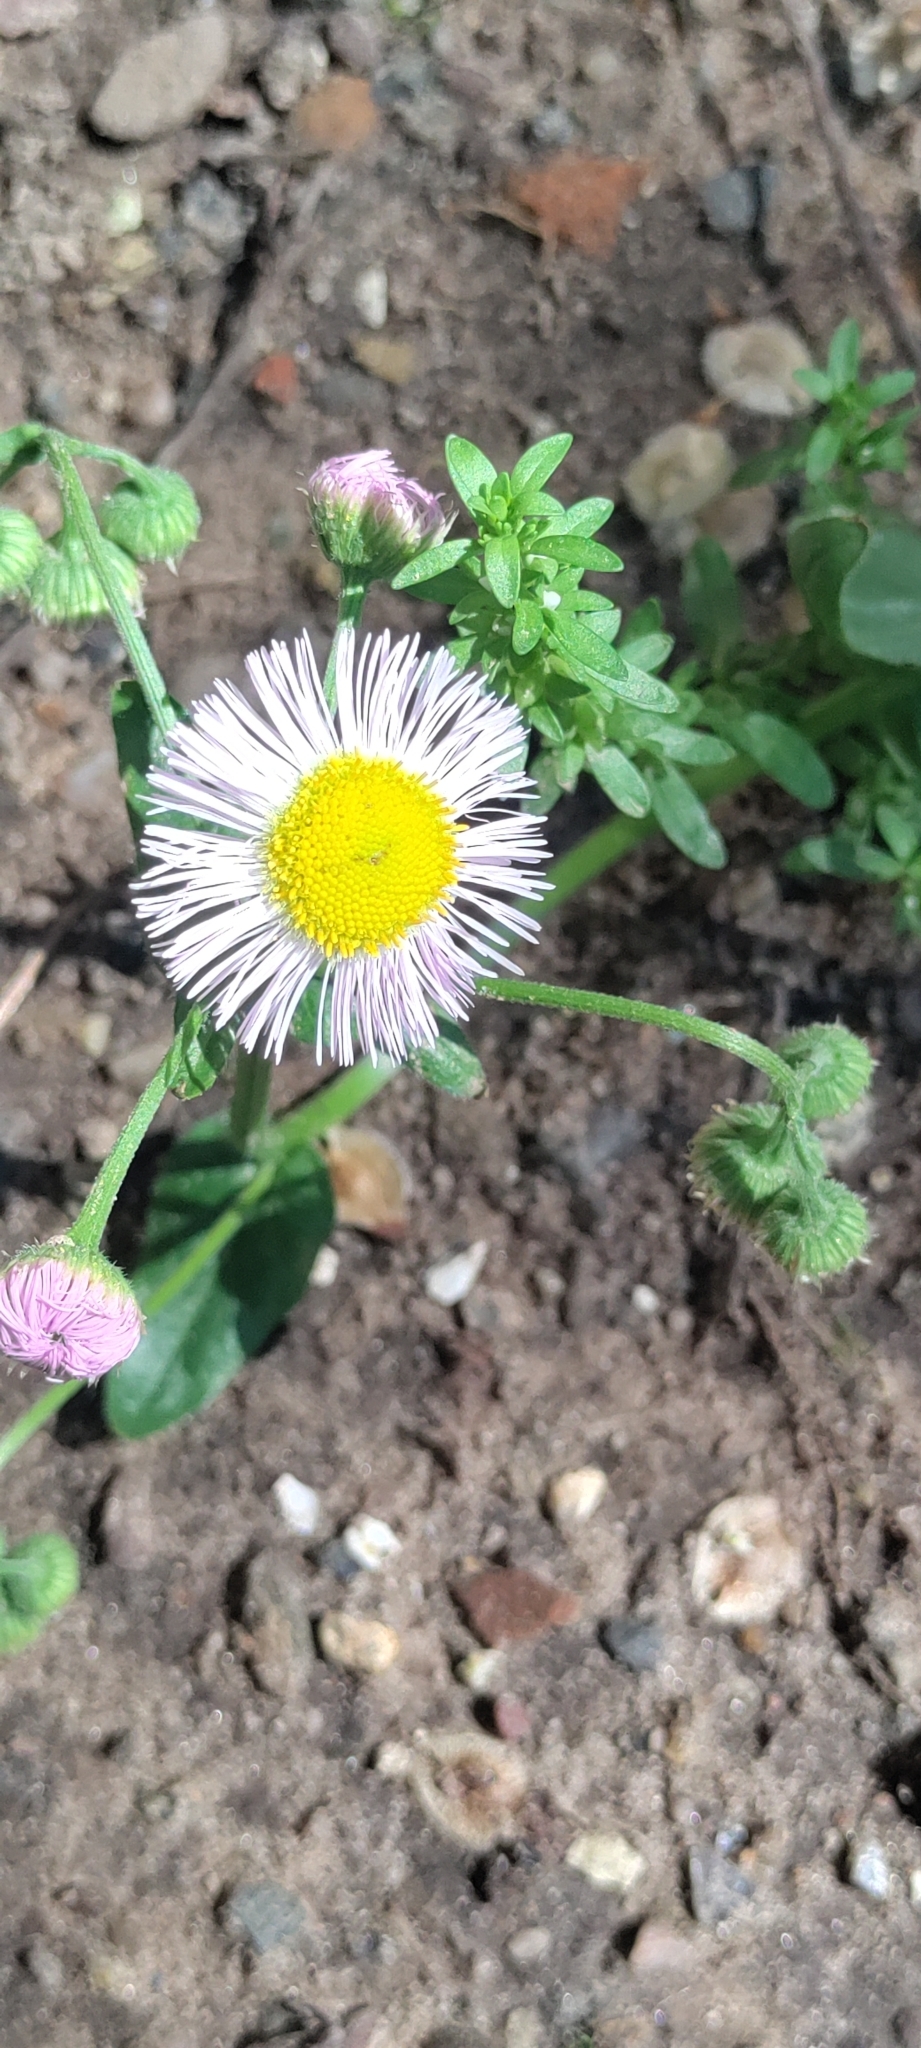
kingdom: Plantae
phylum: Tracheophyta
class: Magnoliopsida
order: Asterales
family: Asteraceae
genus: Erigeron
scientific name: Erigeron philadelphicus
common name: Robin's-plantain
